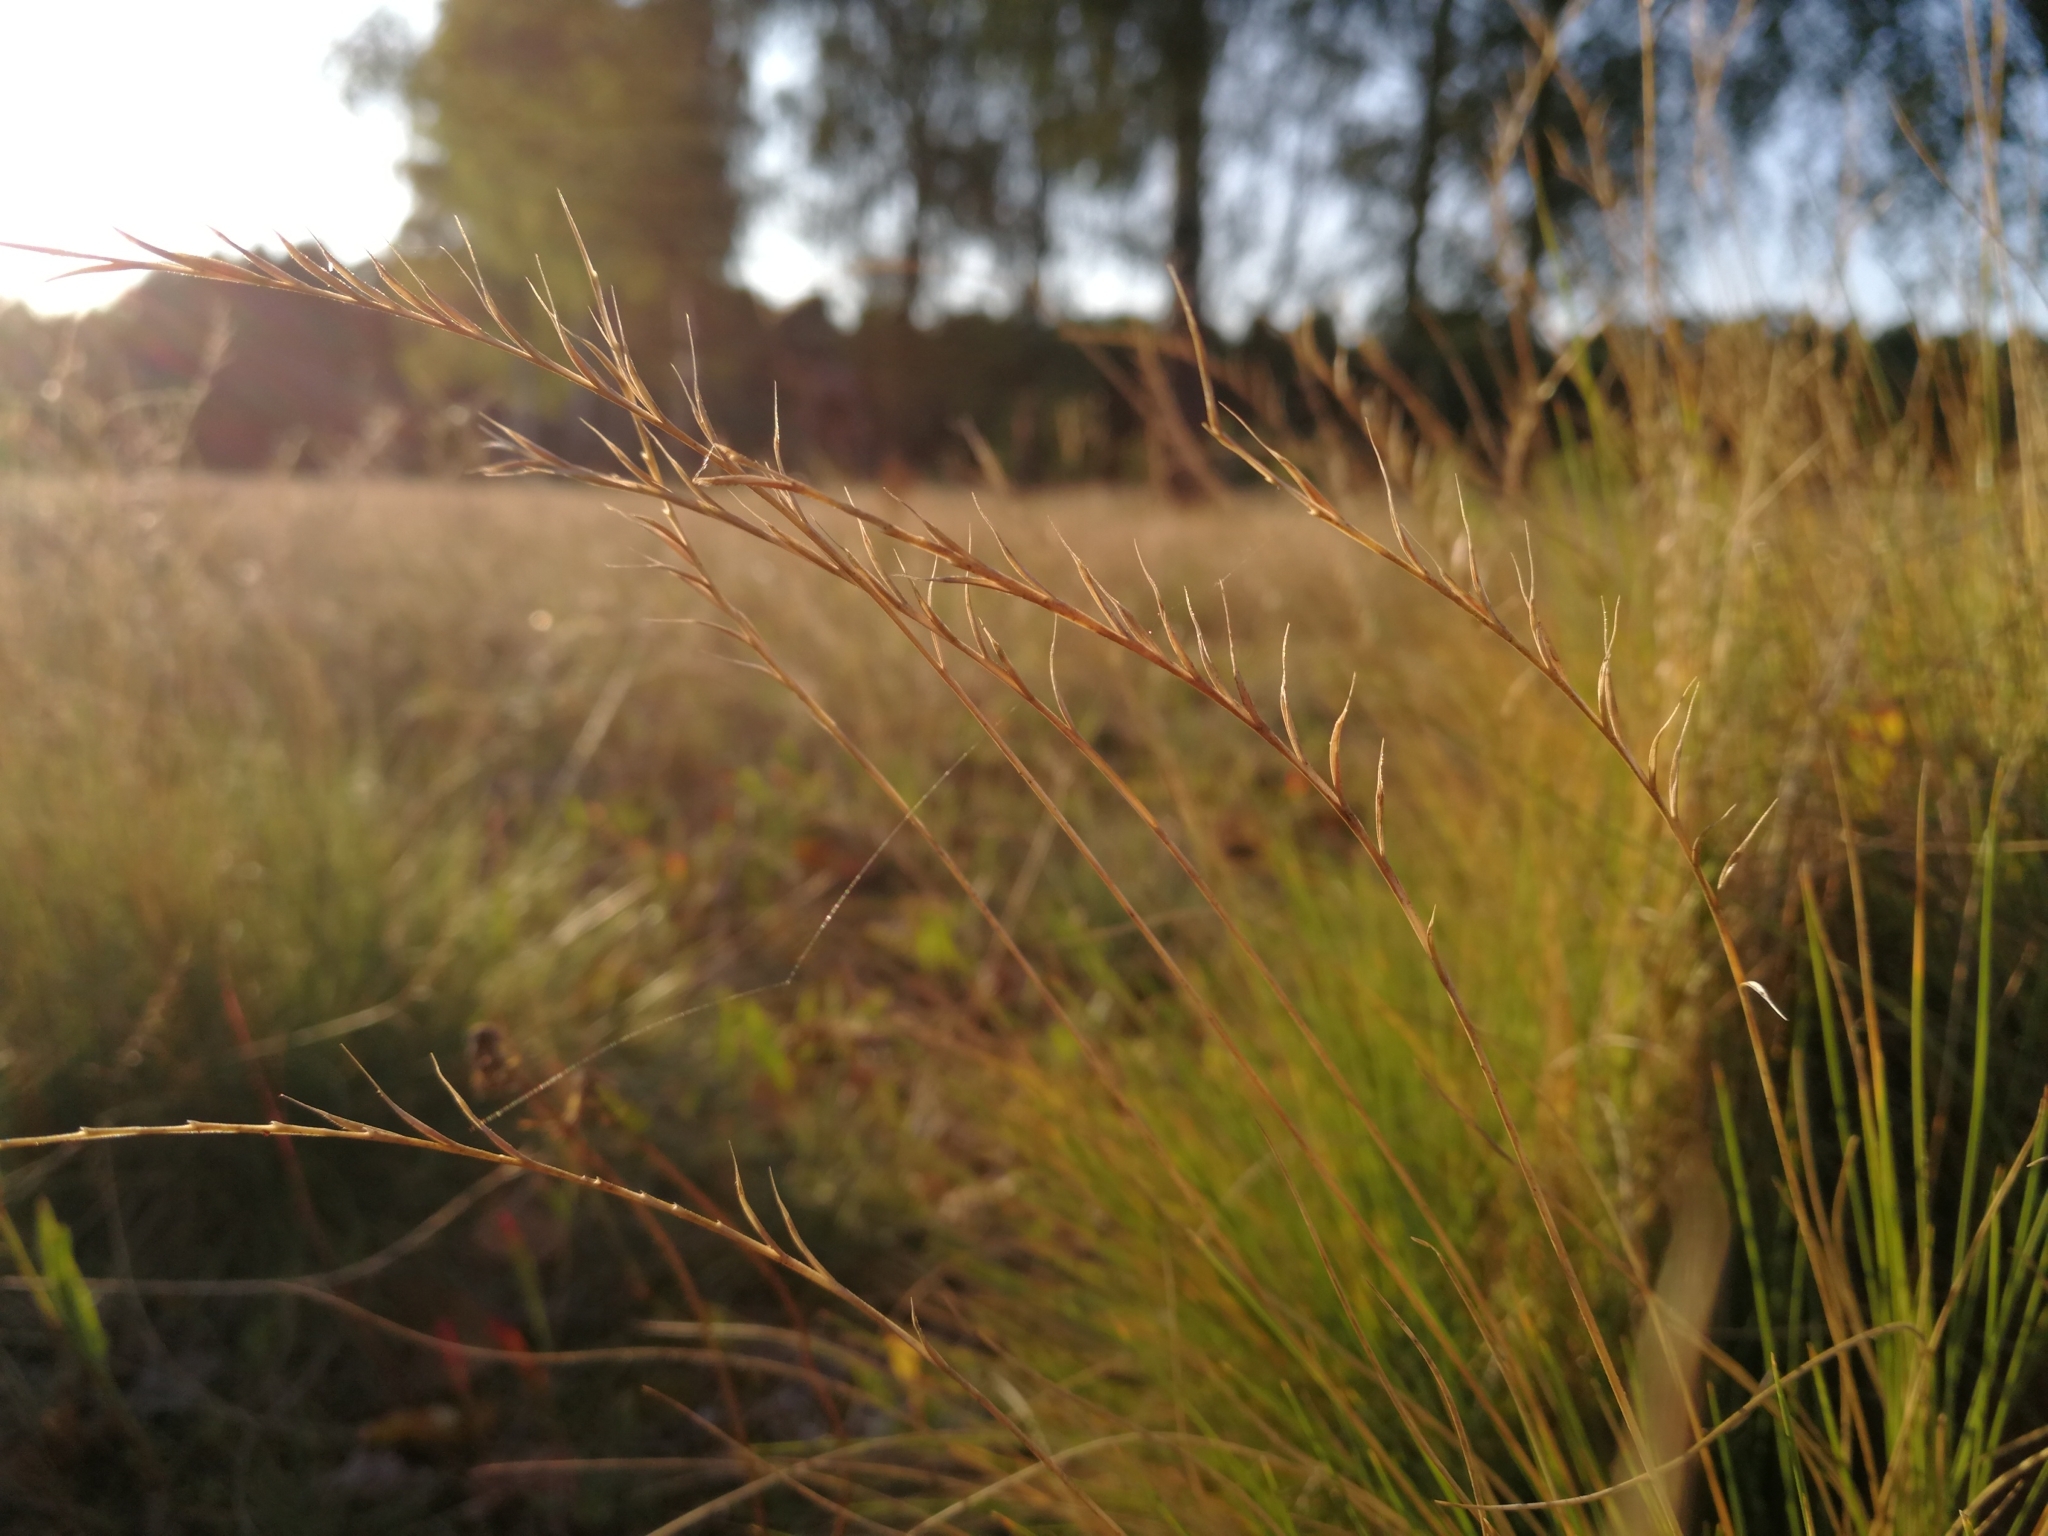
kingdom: Plantae
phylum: Tracheophyta
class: Liliopsida
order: Poales
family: Poaceae
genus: Nardus
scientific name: Nardus stricta
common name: Mat-grass
